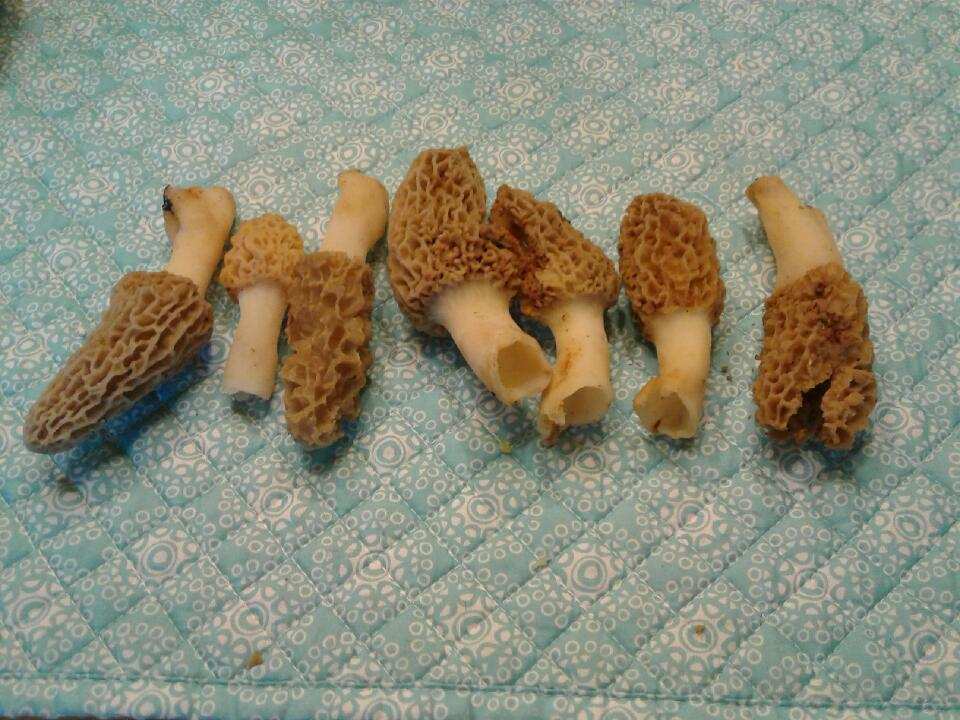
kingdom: Fungi
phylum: Ascomycota
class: Pezizomycetes
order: Pezizales
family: Morchellaceae
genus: Morchella
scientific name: Morchella americana
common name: White morel
